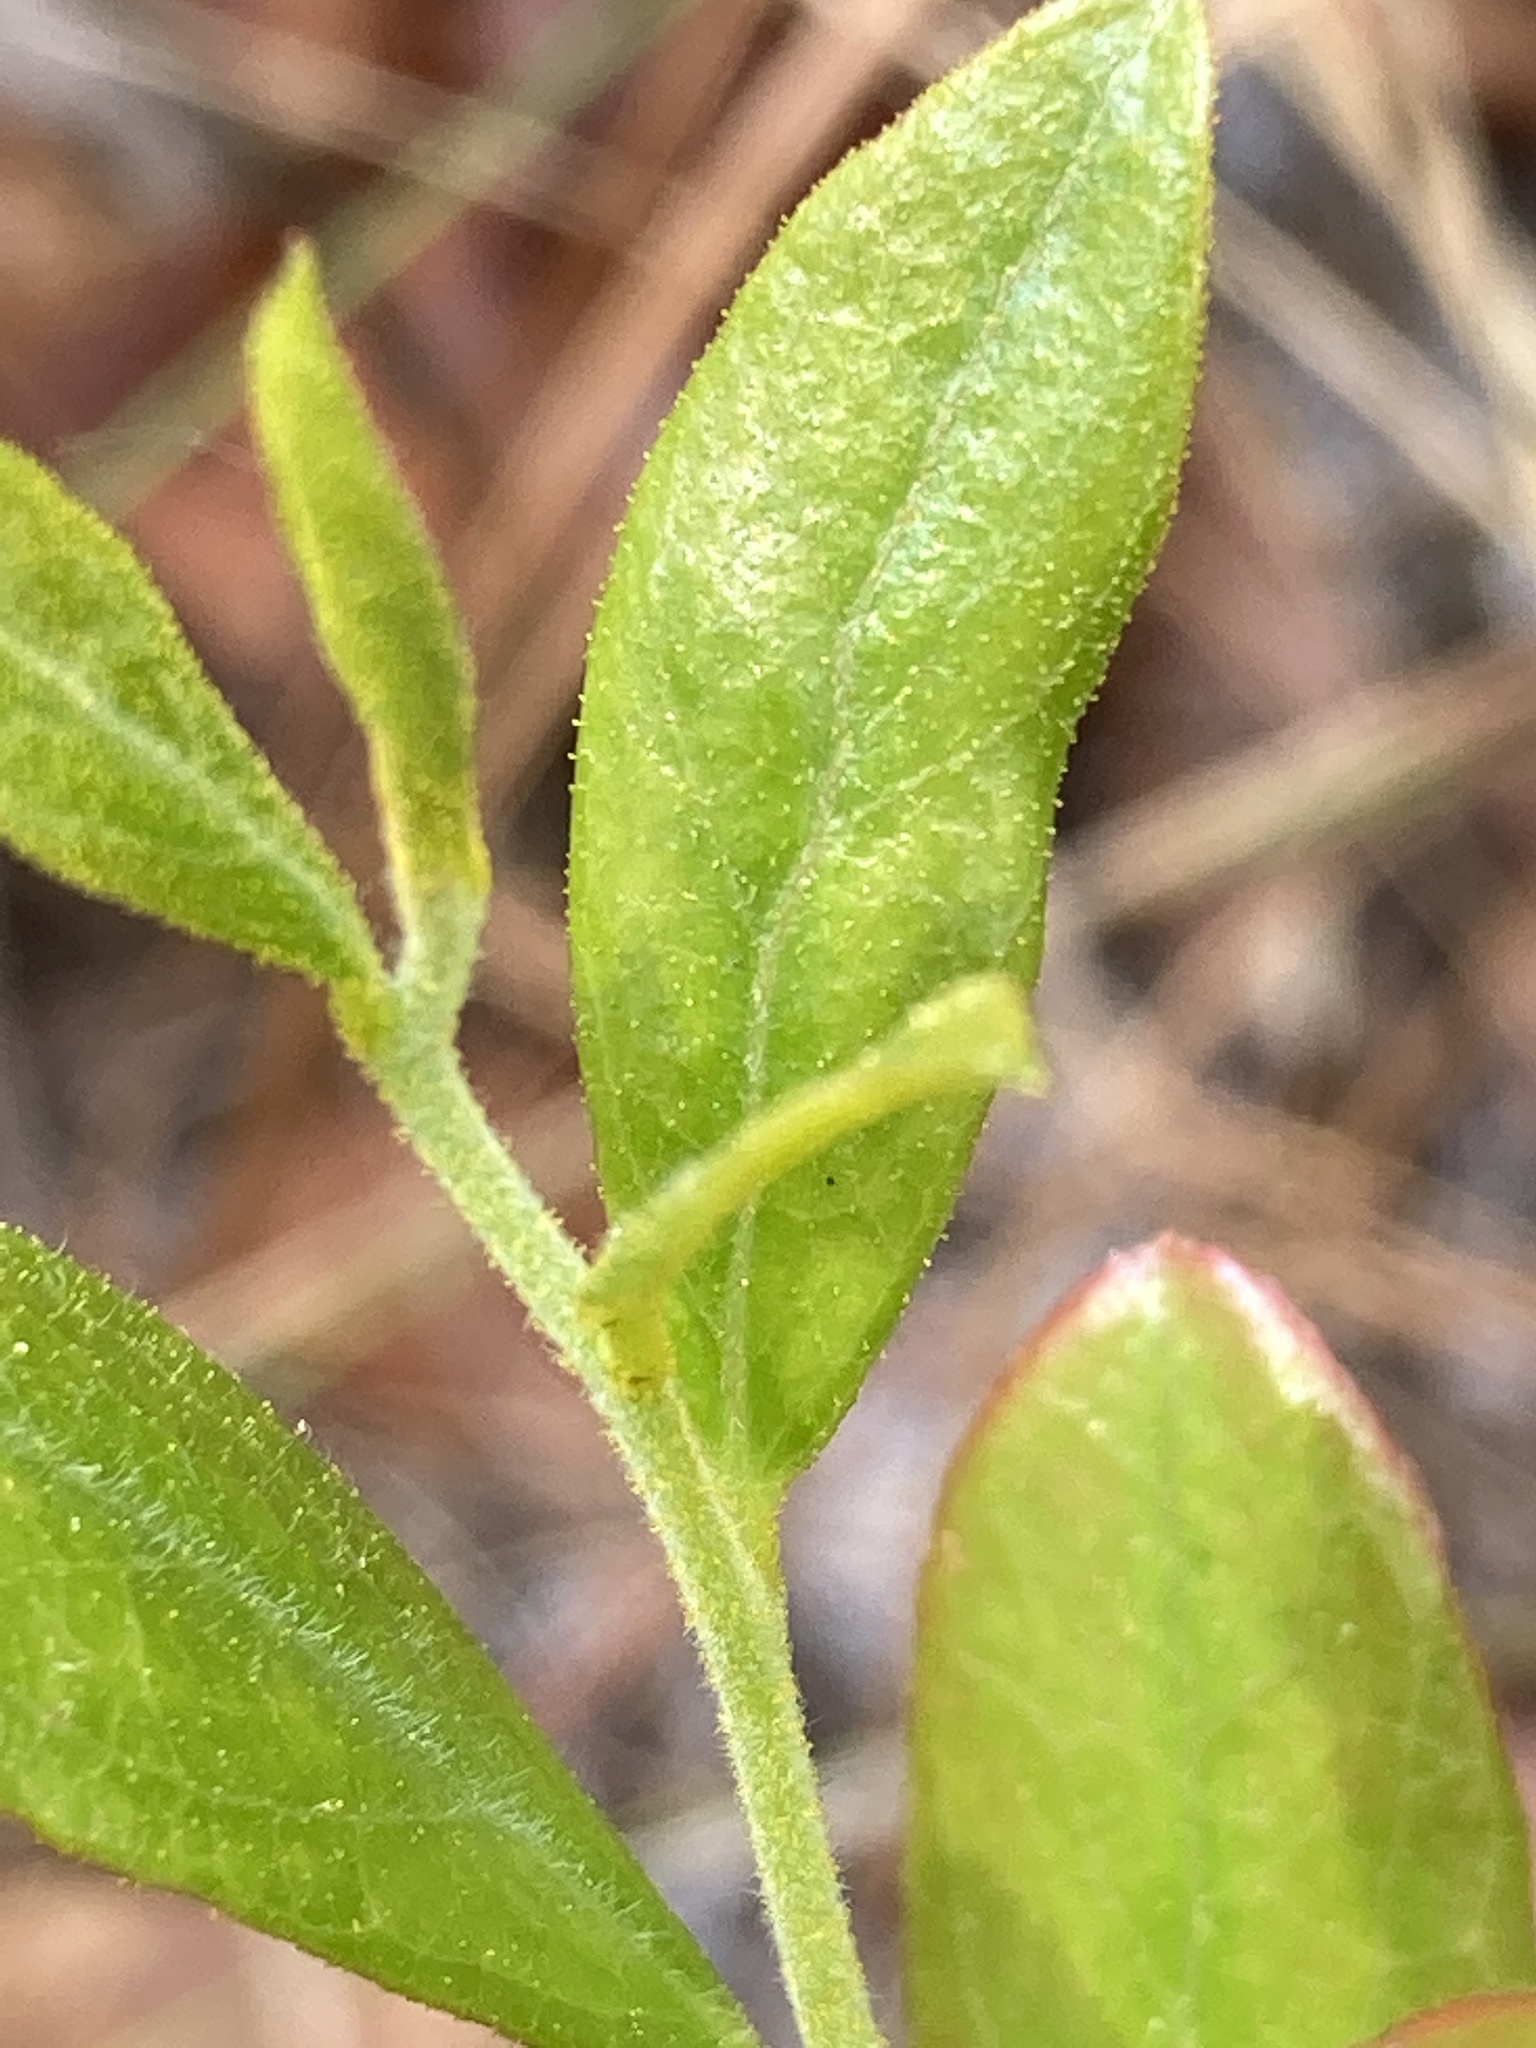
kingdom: Plantae
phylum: Tracheophyta
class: Magnoliopsida
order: Ericales
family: Ericaceae
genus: Gaylussacia
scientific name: Gaylussacia dumosa
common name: Dwarf huckleberry
